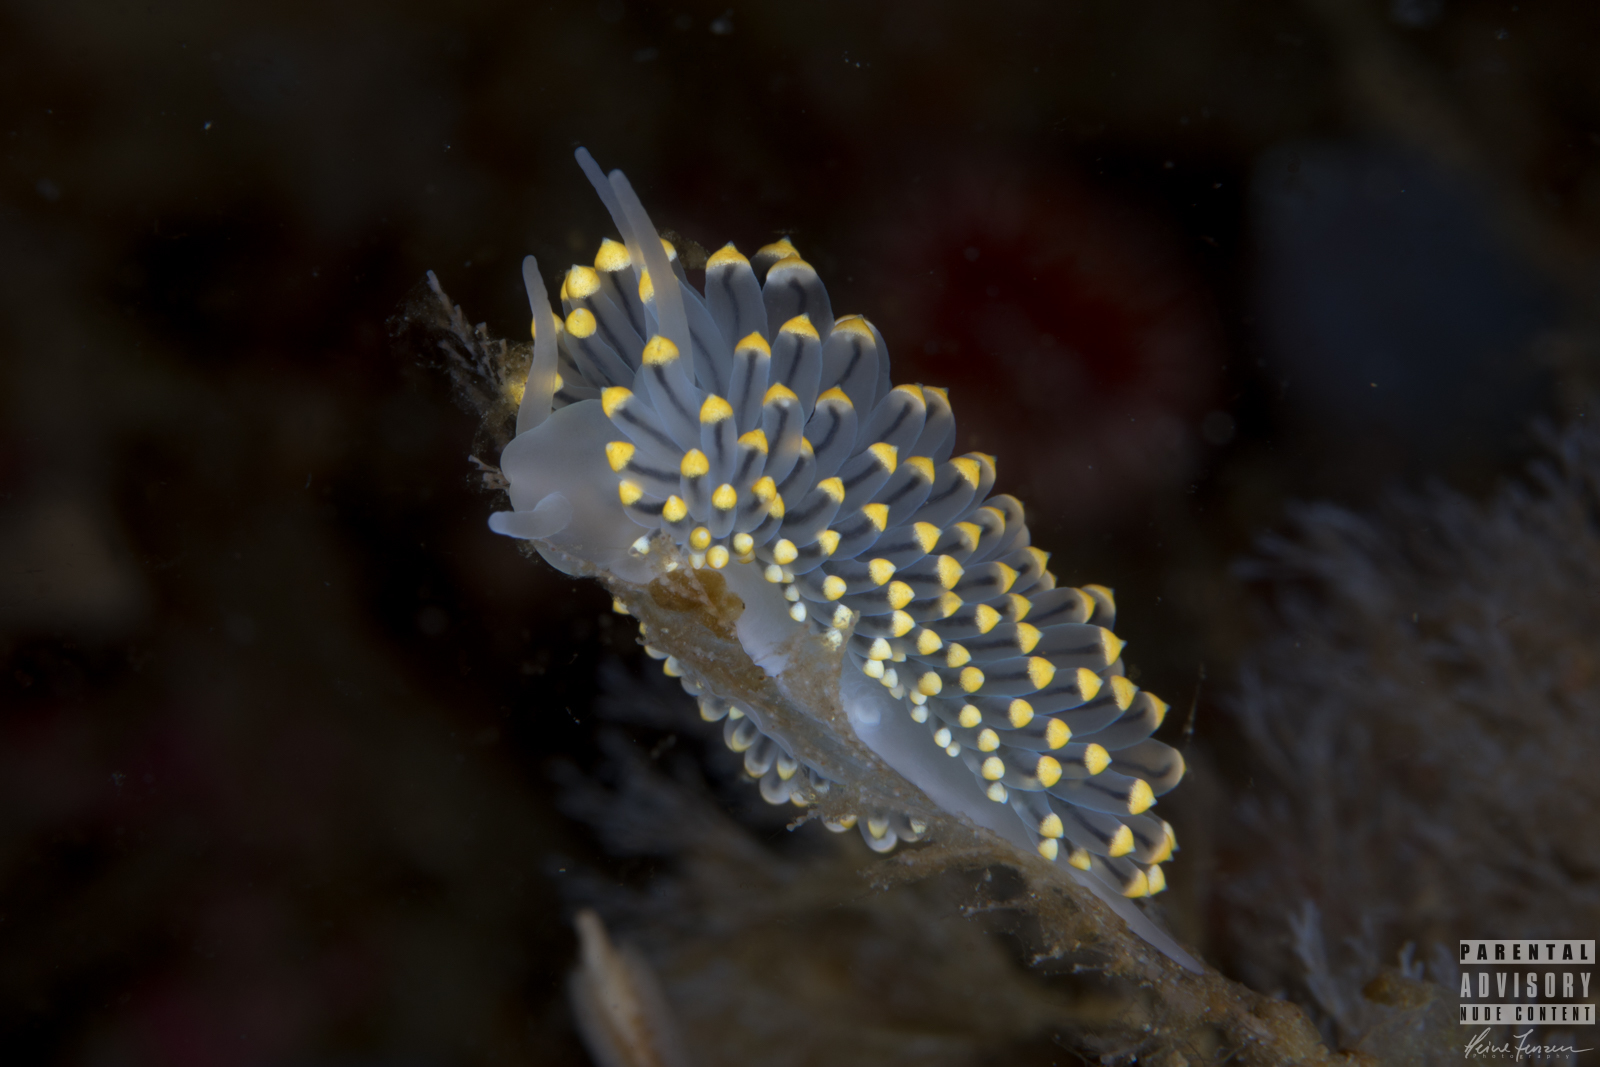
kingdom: Animalia
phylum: Mollusca
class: Gastropoda
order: Nudibranchia
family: Eubranchidae
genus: Eubranchus
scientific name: Eubranchus tricolor
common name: Painted balloon aeolis
